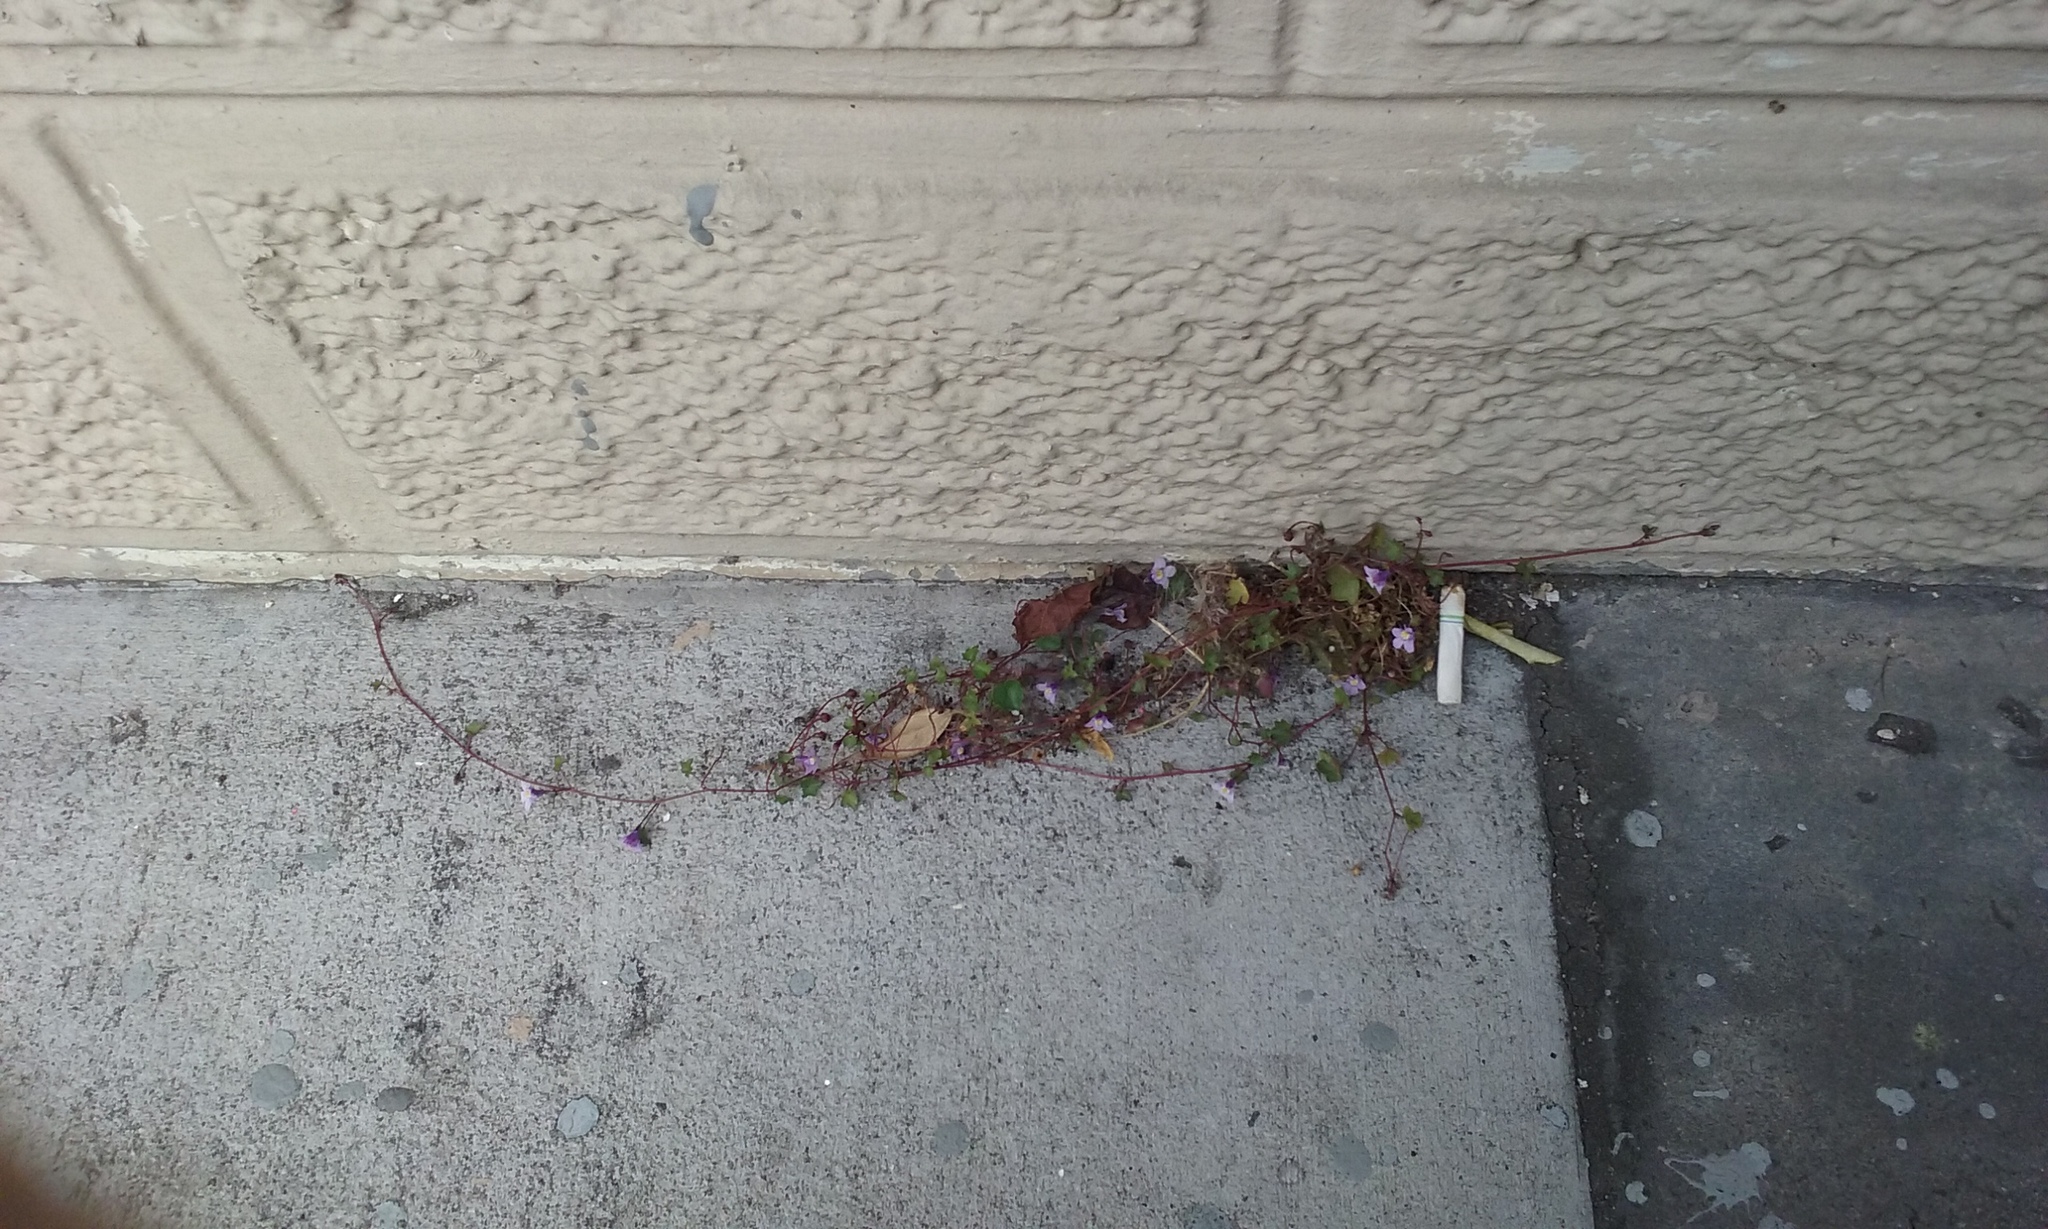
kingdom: Plantae
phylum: Tracheophyta
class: Magnoliopsida
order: Lamiales
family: Plantaginaceae
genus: Cymbalaria
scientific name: Cymbalaria muralis
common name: Ivy-leaved toadflax
